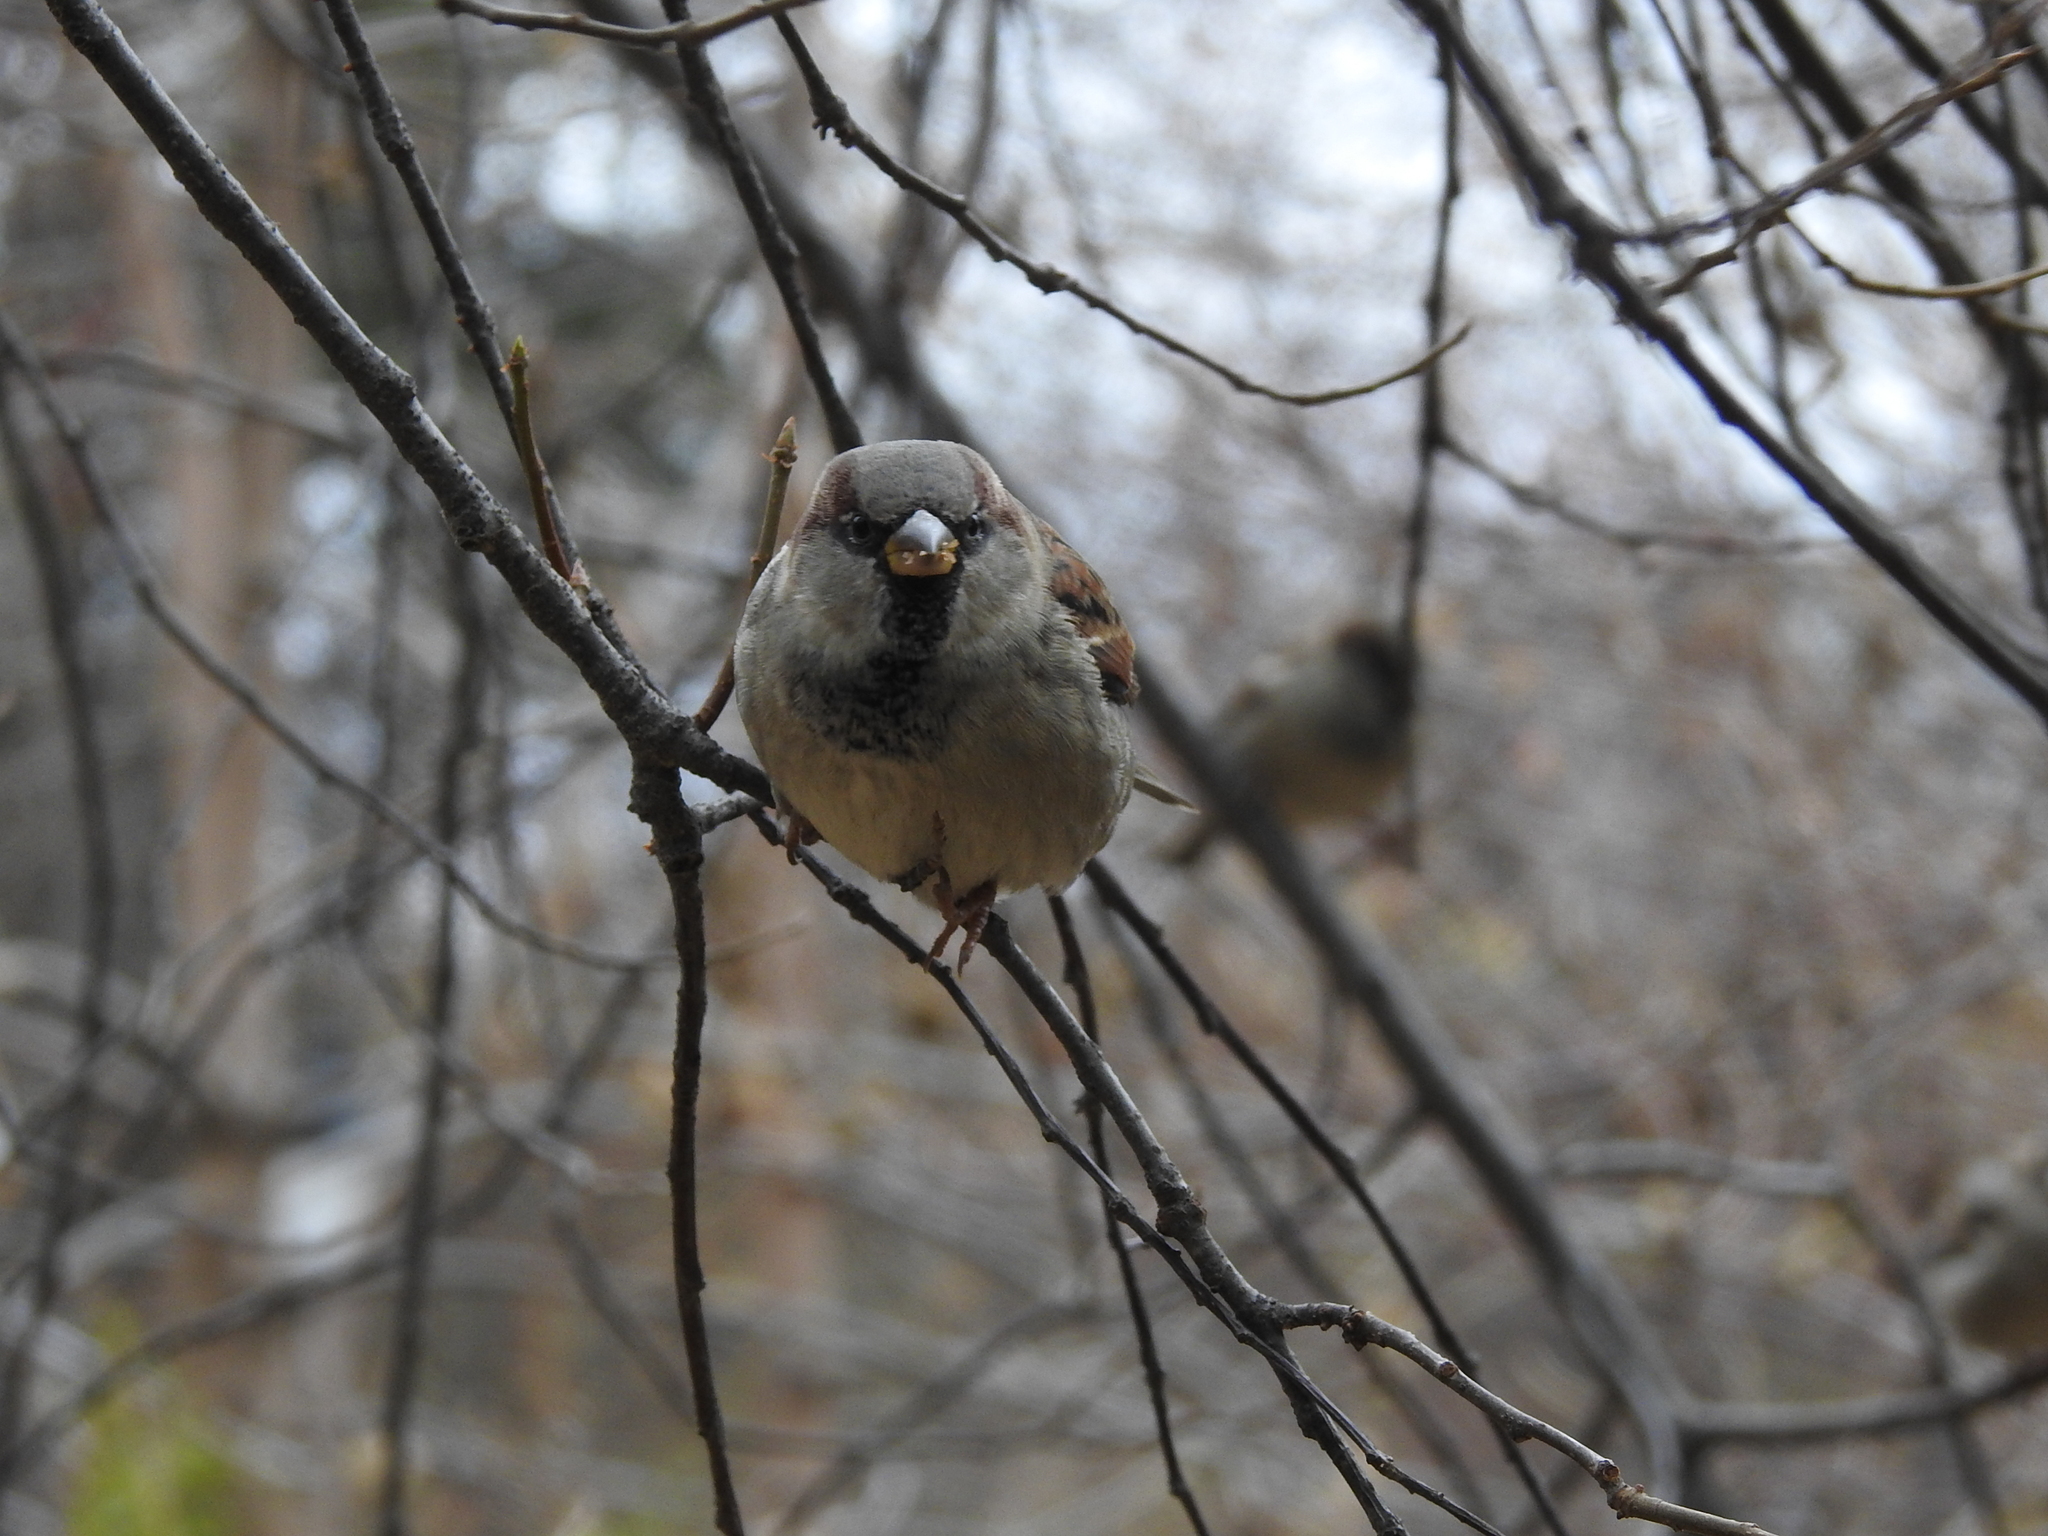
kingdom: Animalia
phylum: Chordata
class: Aves
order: Passeriformes
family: Passeridae
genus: Passer
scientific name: Passer domesticus
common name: House sparrow
